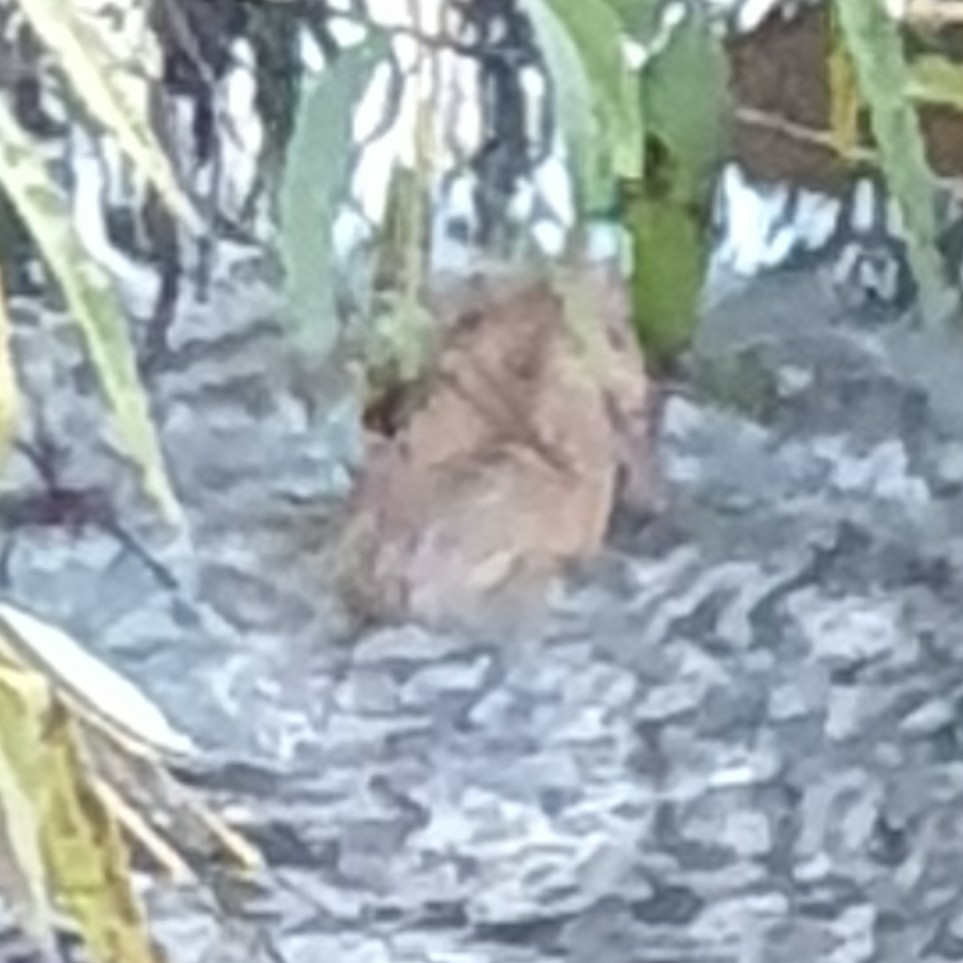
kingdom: Animalia
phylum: Chordata
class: Mammalia
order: Rodentia
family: Muridae
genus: Rattus
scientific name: Rattus norvegicus
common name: Brown rat
